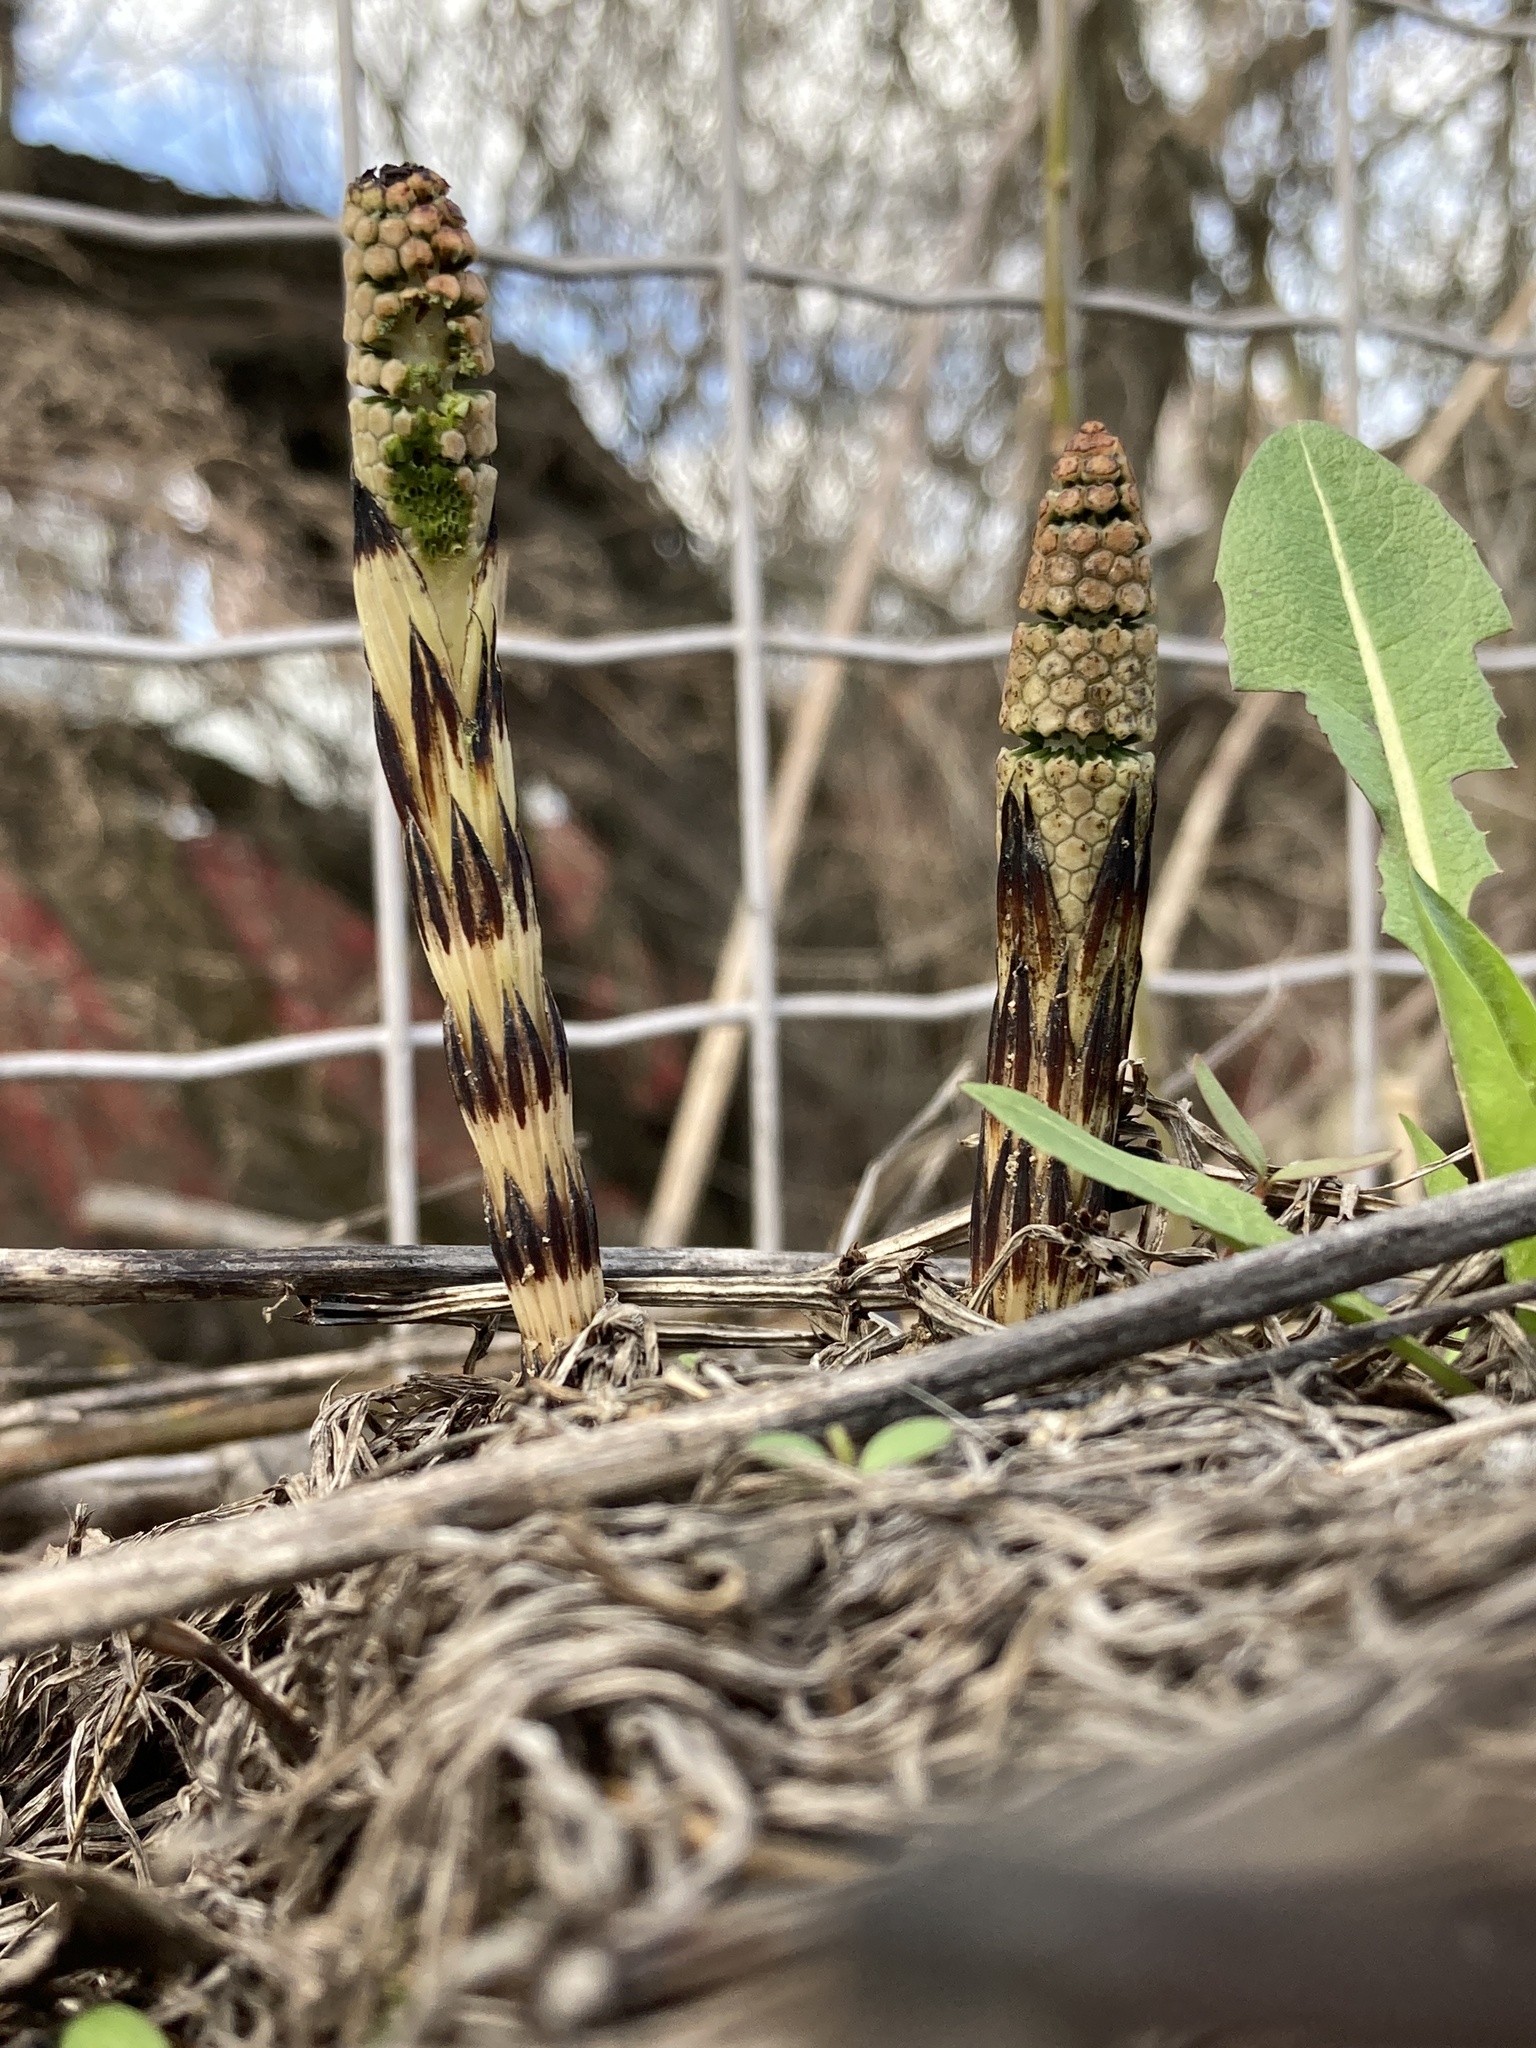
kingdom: Plantae
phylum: Tracheophyta
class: Polypodiopsida
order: Equisetales
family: Equisetaceae
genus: Equisetum
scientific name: Equisetum arvense
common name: Field horsetail
